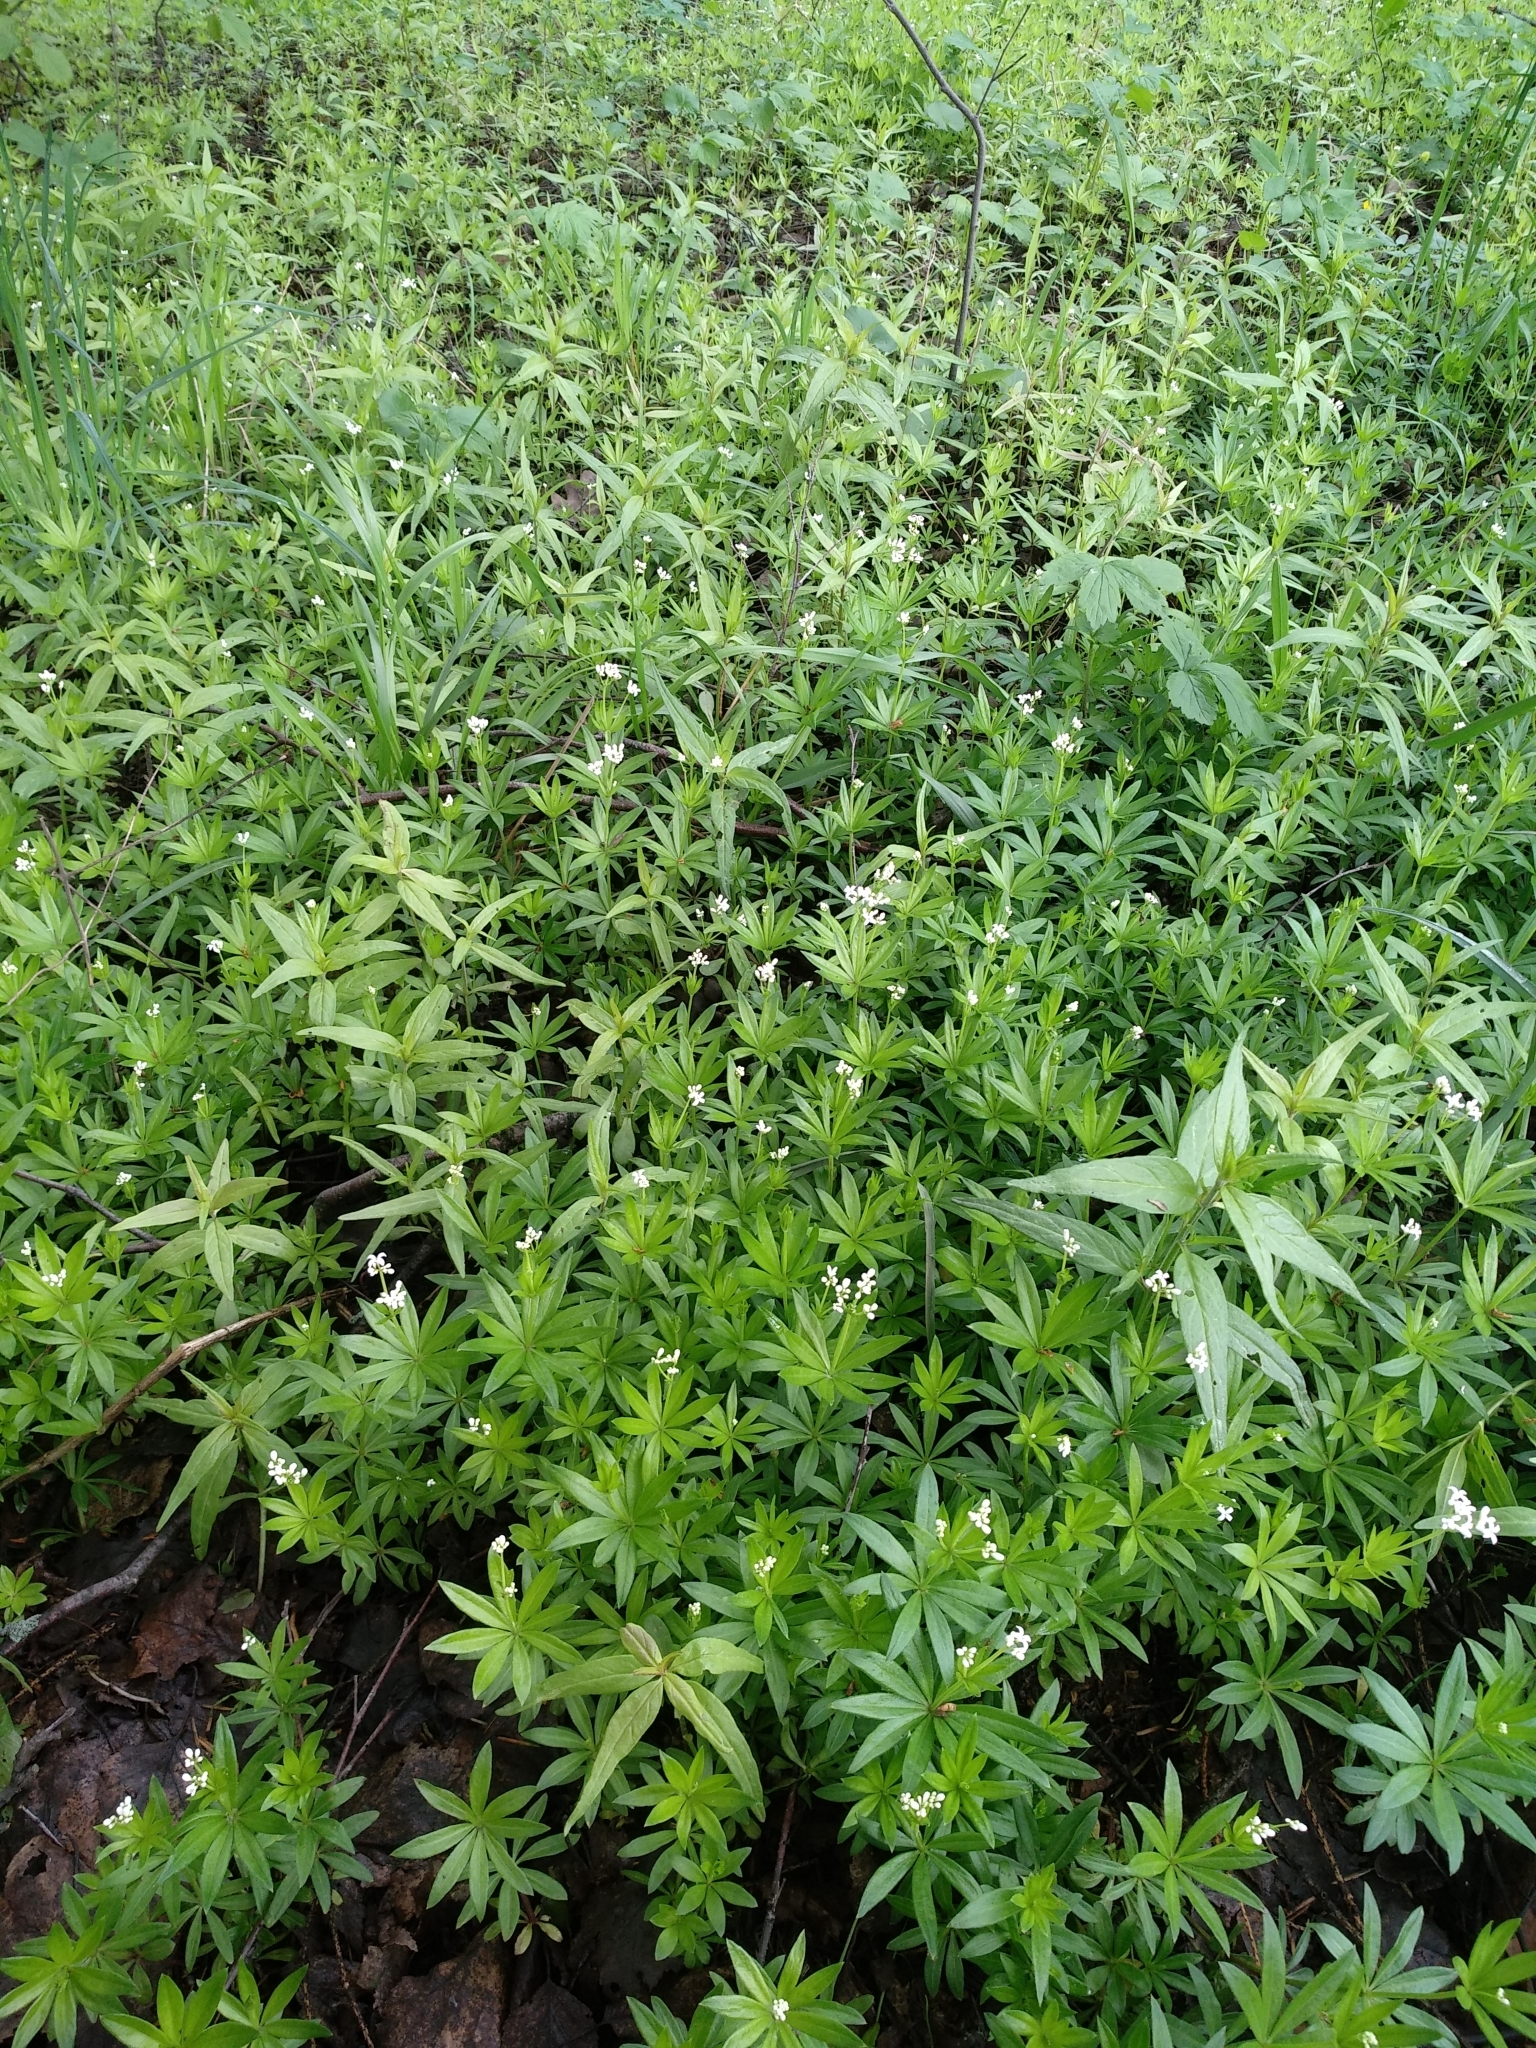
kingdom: Plantae
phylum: Tracheophyta
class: Magnoliopsida
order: Gentianales
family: Rubiaceae
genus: Galium
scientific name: Galium odoratum
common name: Sweet woodruff
